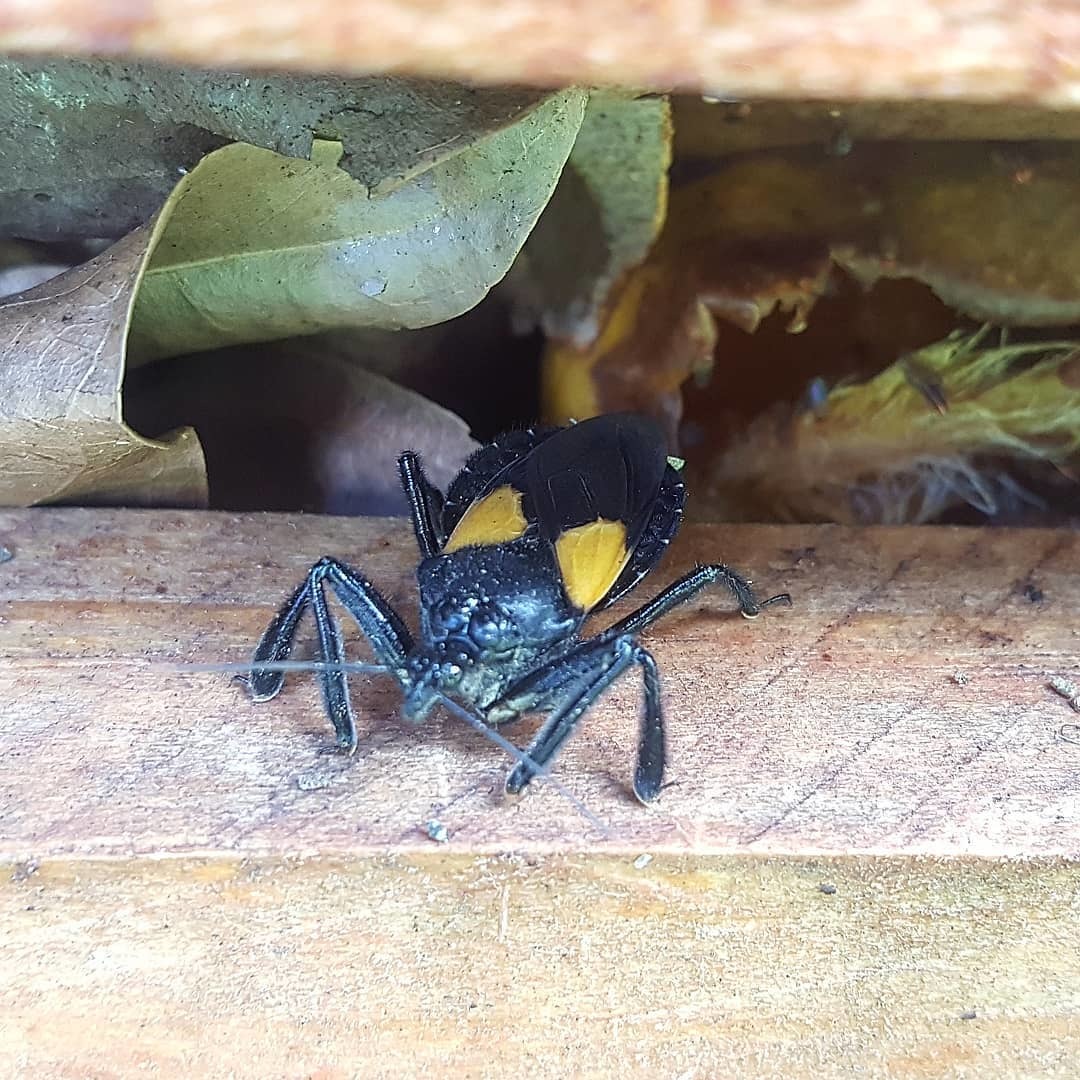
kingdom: Animalia
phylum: Arthropoda
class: Insecta
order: Hemiptera
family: Reduviidae
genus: Apiomerus
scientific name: Apiomerus elatus
